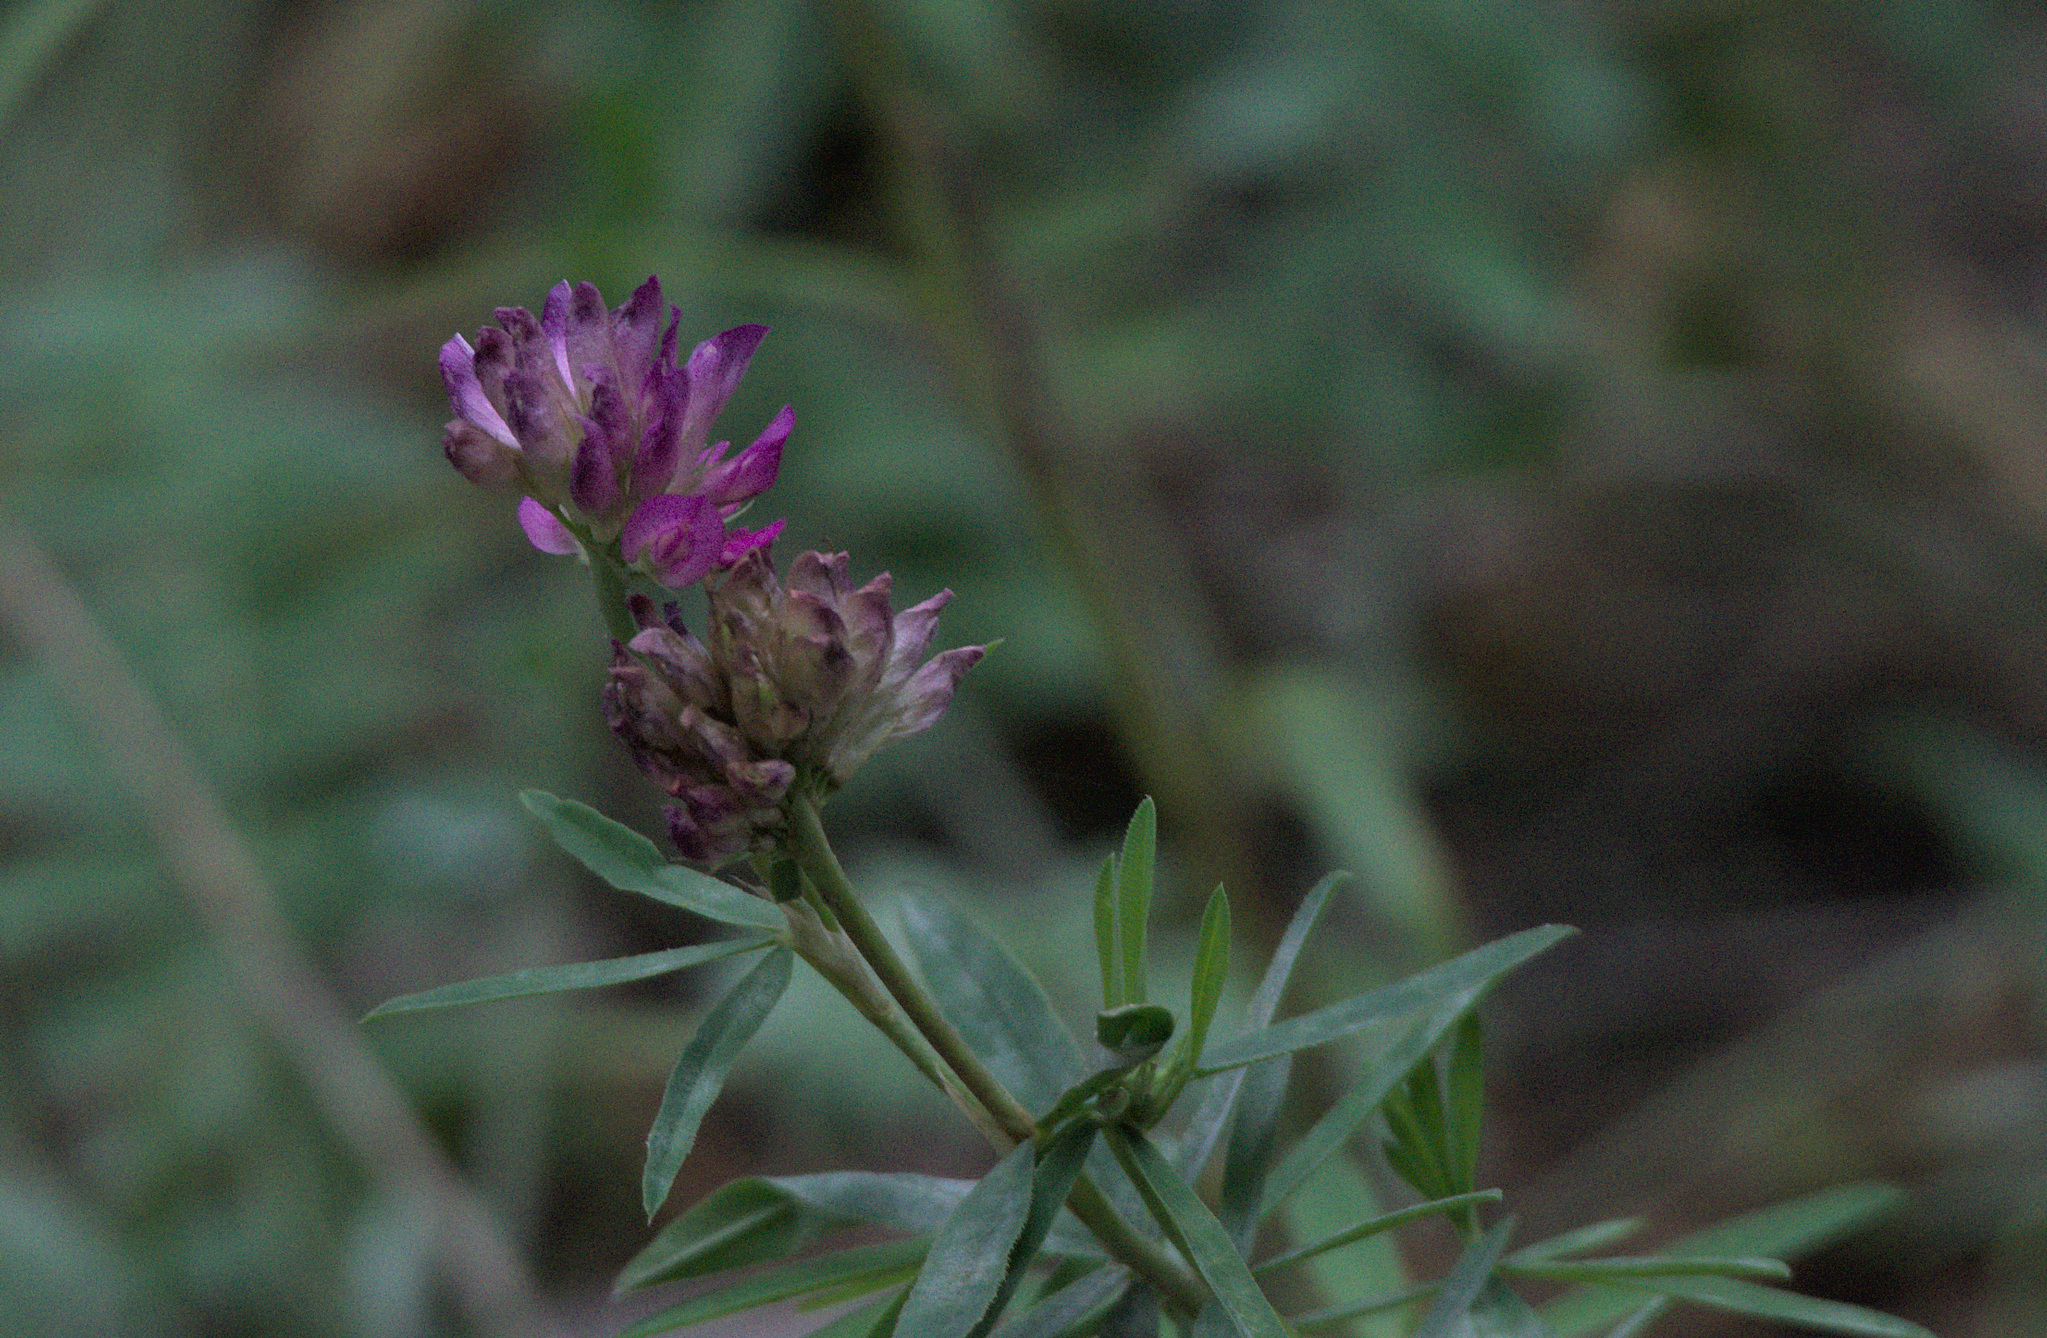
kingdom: Plantae
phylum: Tracheophyta
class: Magnoliopsida
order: Fabales
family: Fabaceae
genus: Trifolium
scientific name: Trifolium lupinaster
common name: Lupine clover
